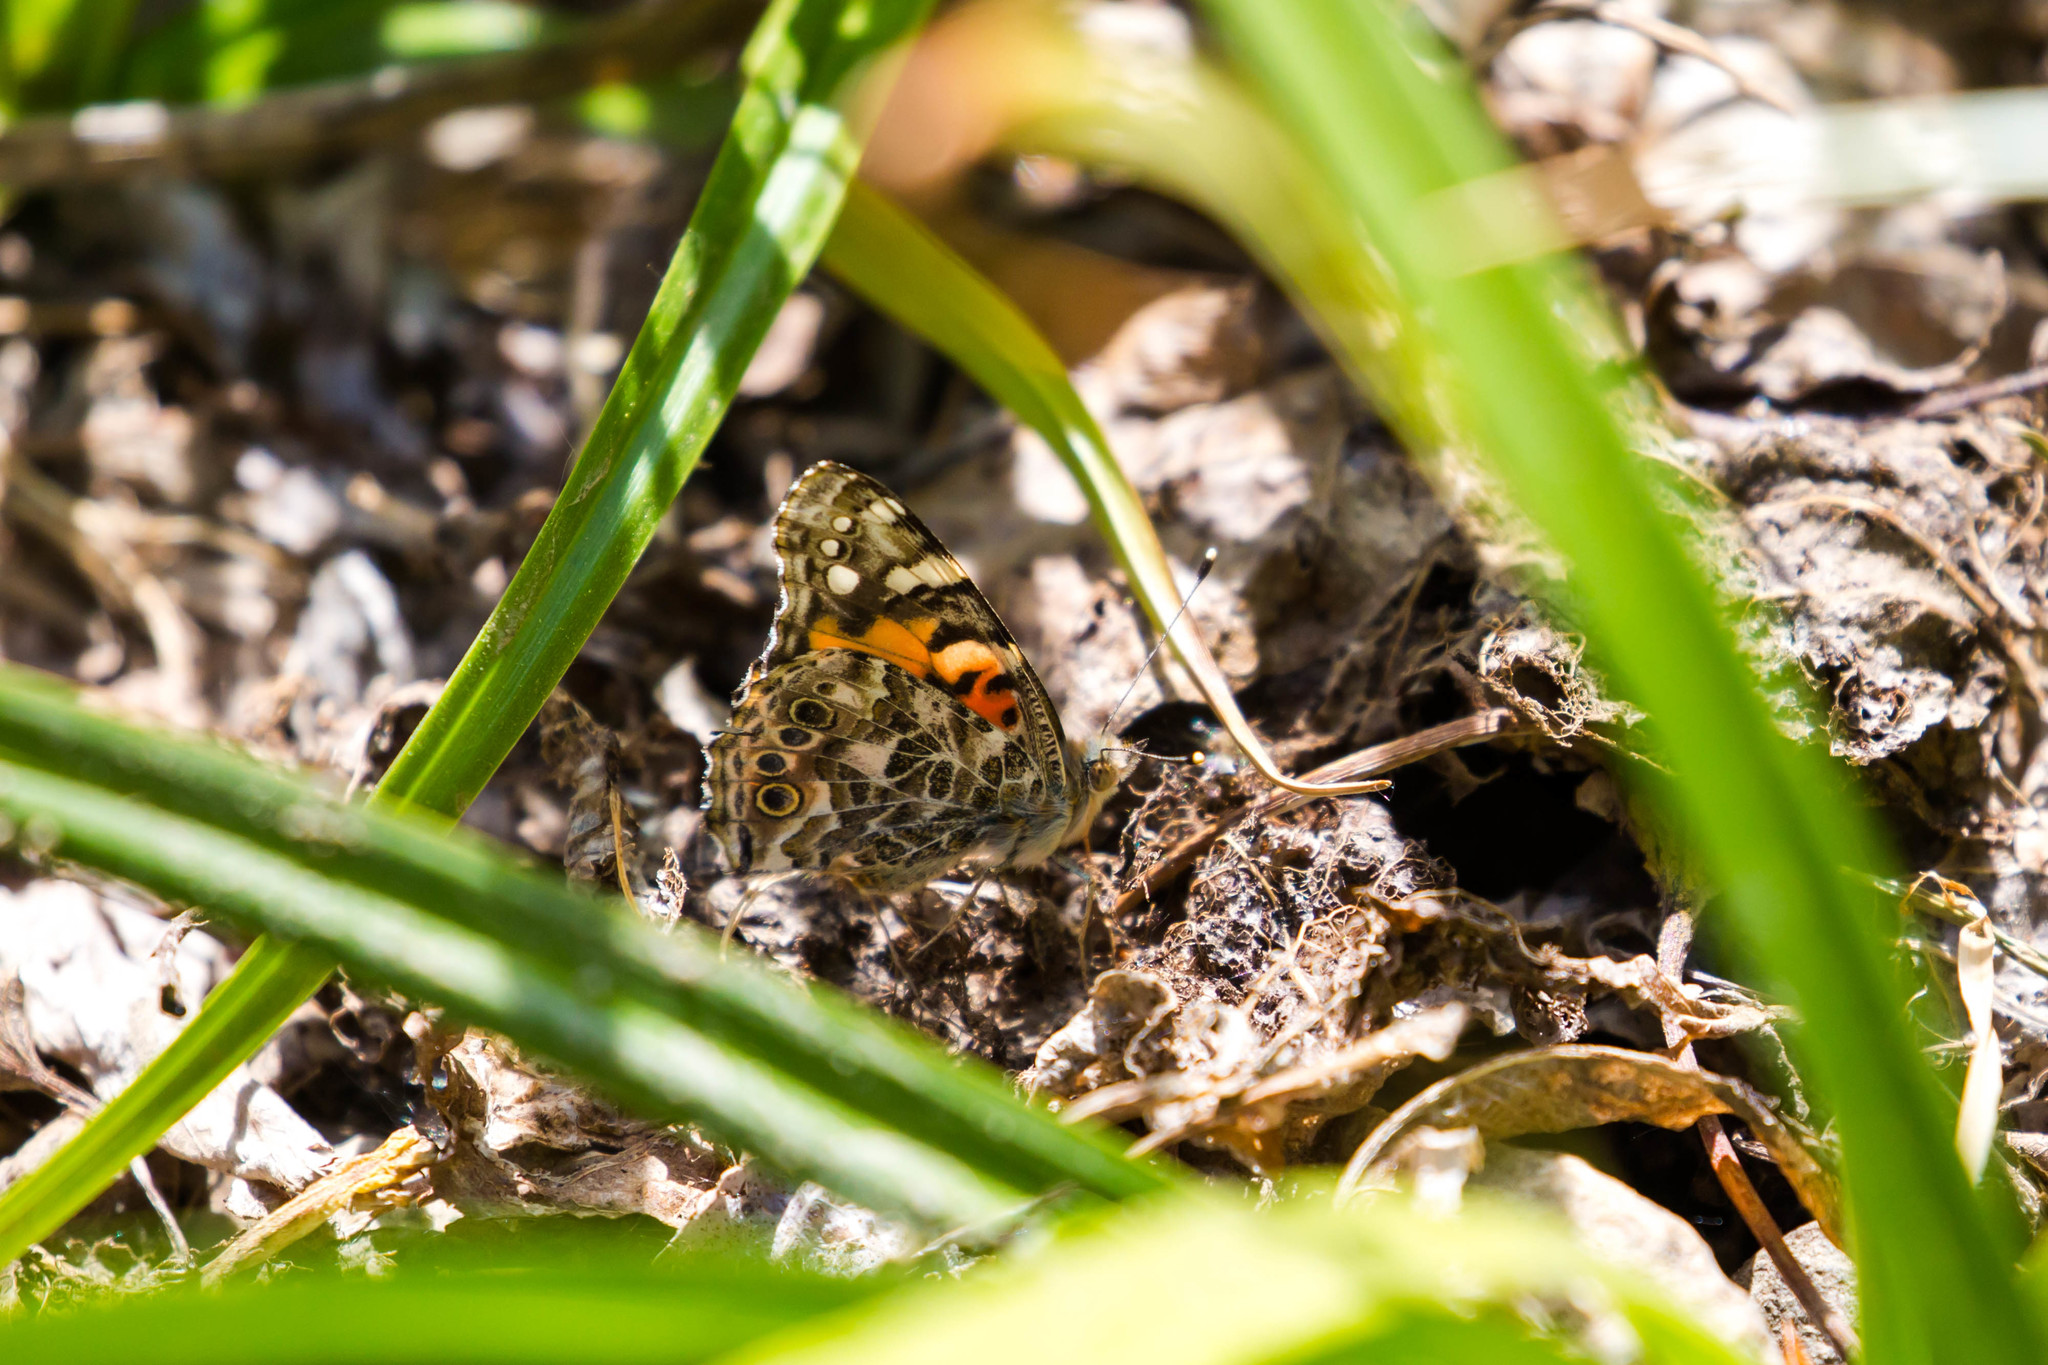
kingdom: Animalia
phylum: Arthropoda
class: Insecta
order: Lepidoptera
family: Nymphalidae
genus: Vanessa
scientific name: Vanessa cardui
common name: Painted lady
